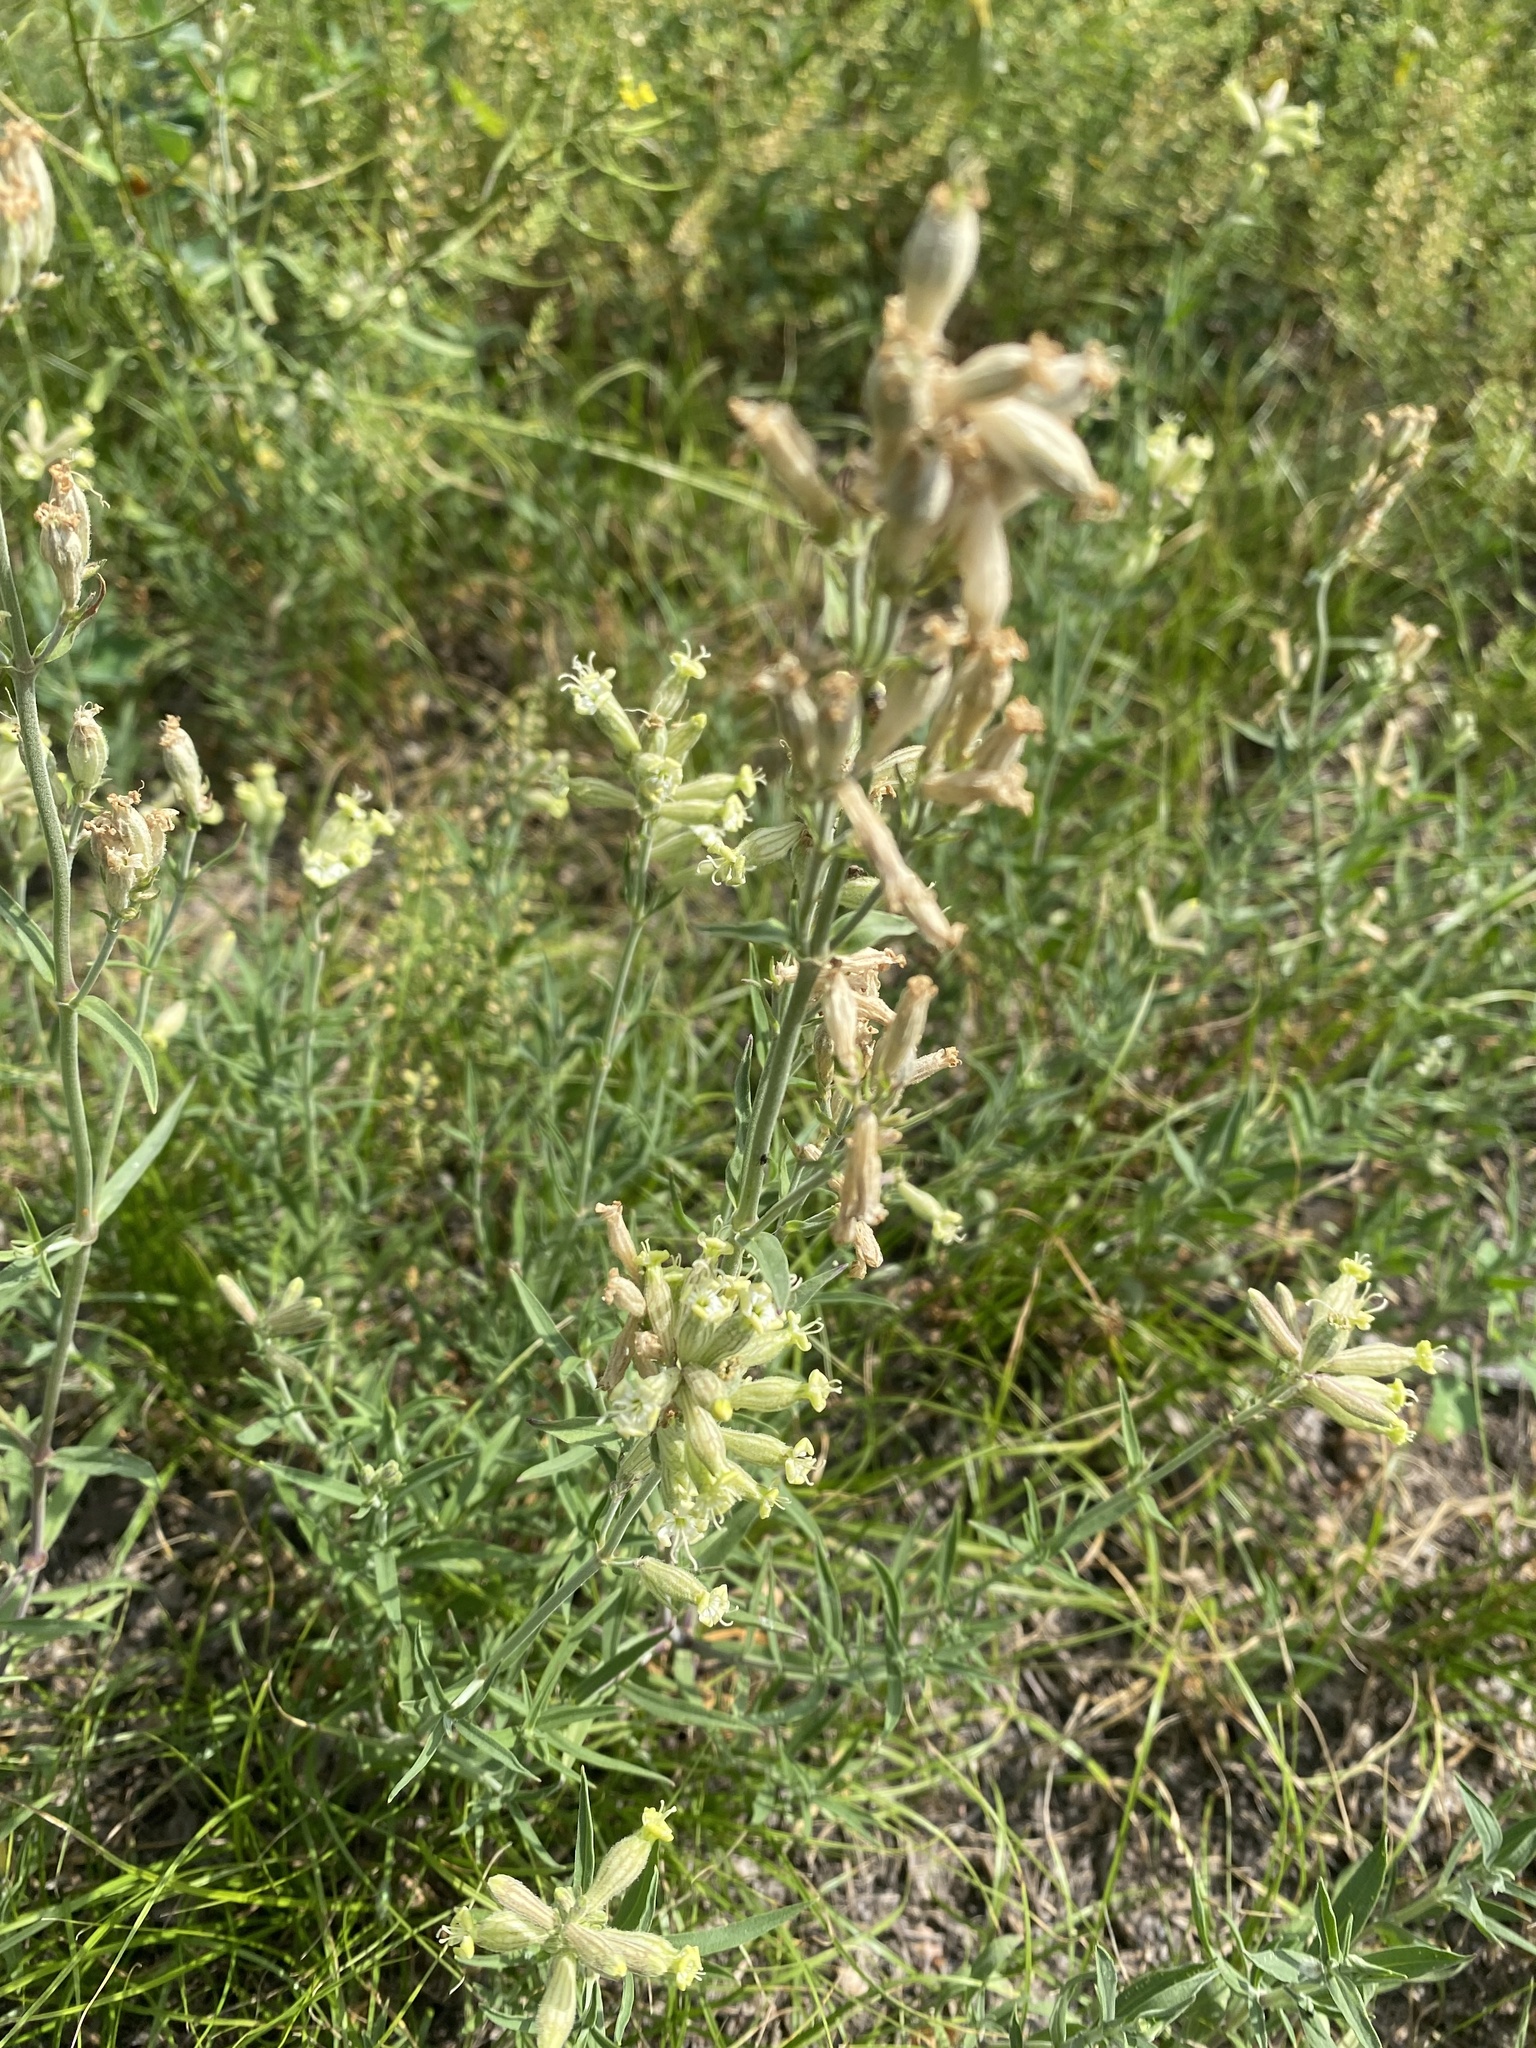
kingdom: Plantae
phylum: Tracheophyta
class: Magnoliopsida
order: Caryophyllales
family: Caryophyllaceae
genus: Silene
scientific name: Silene amoena
